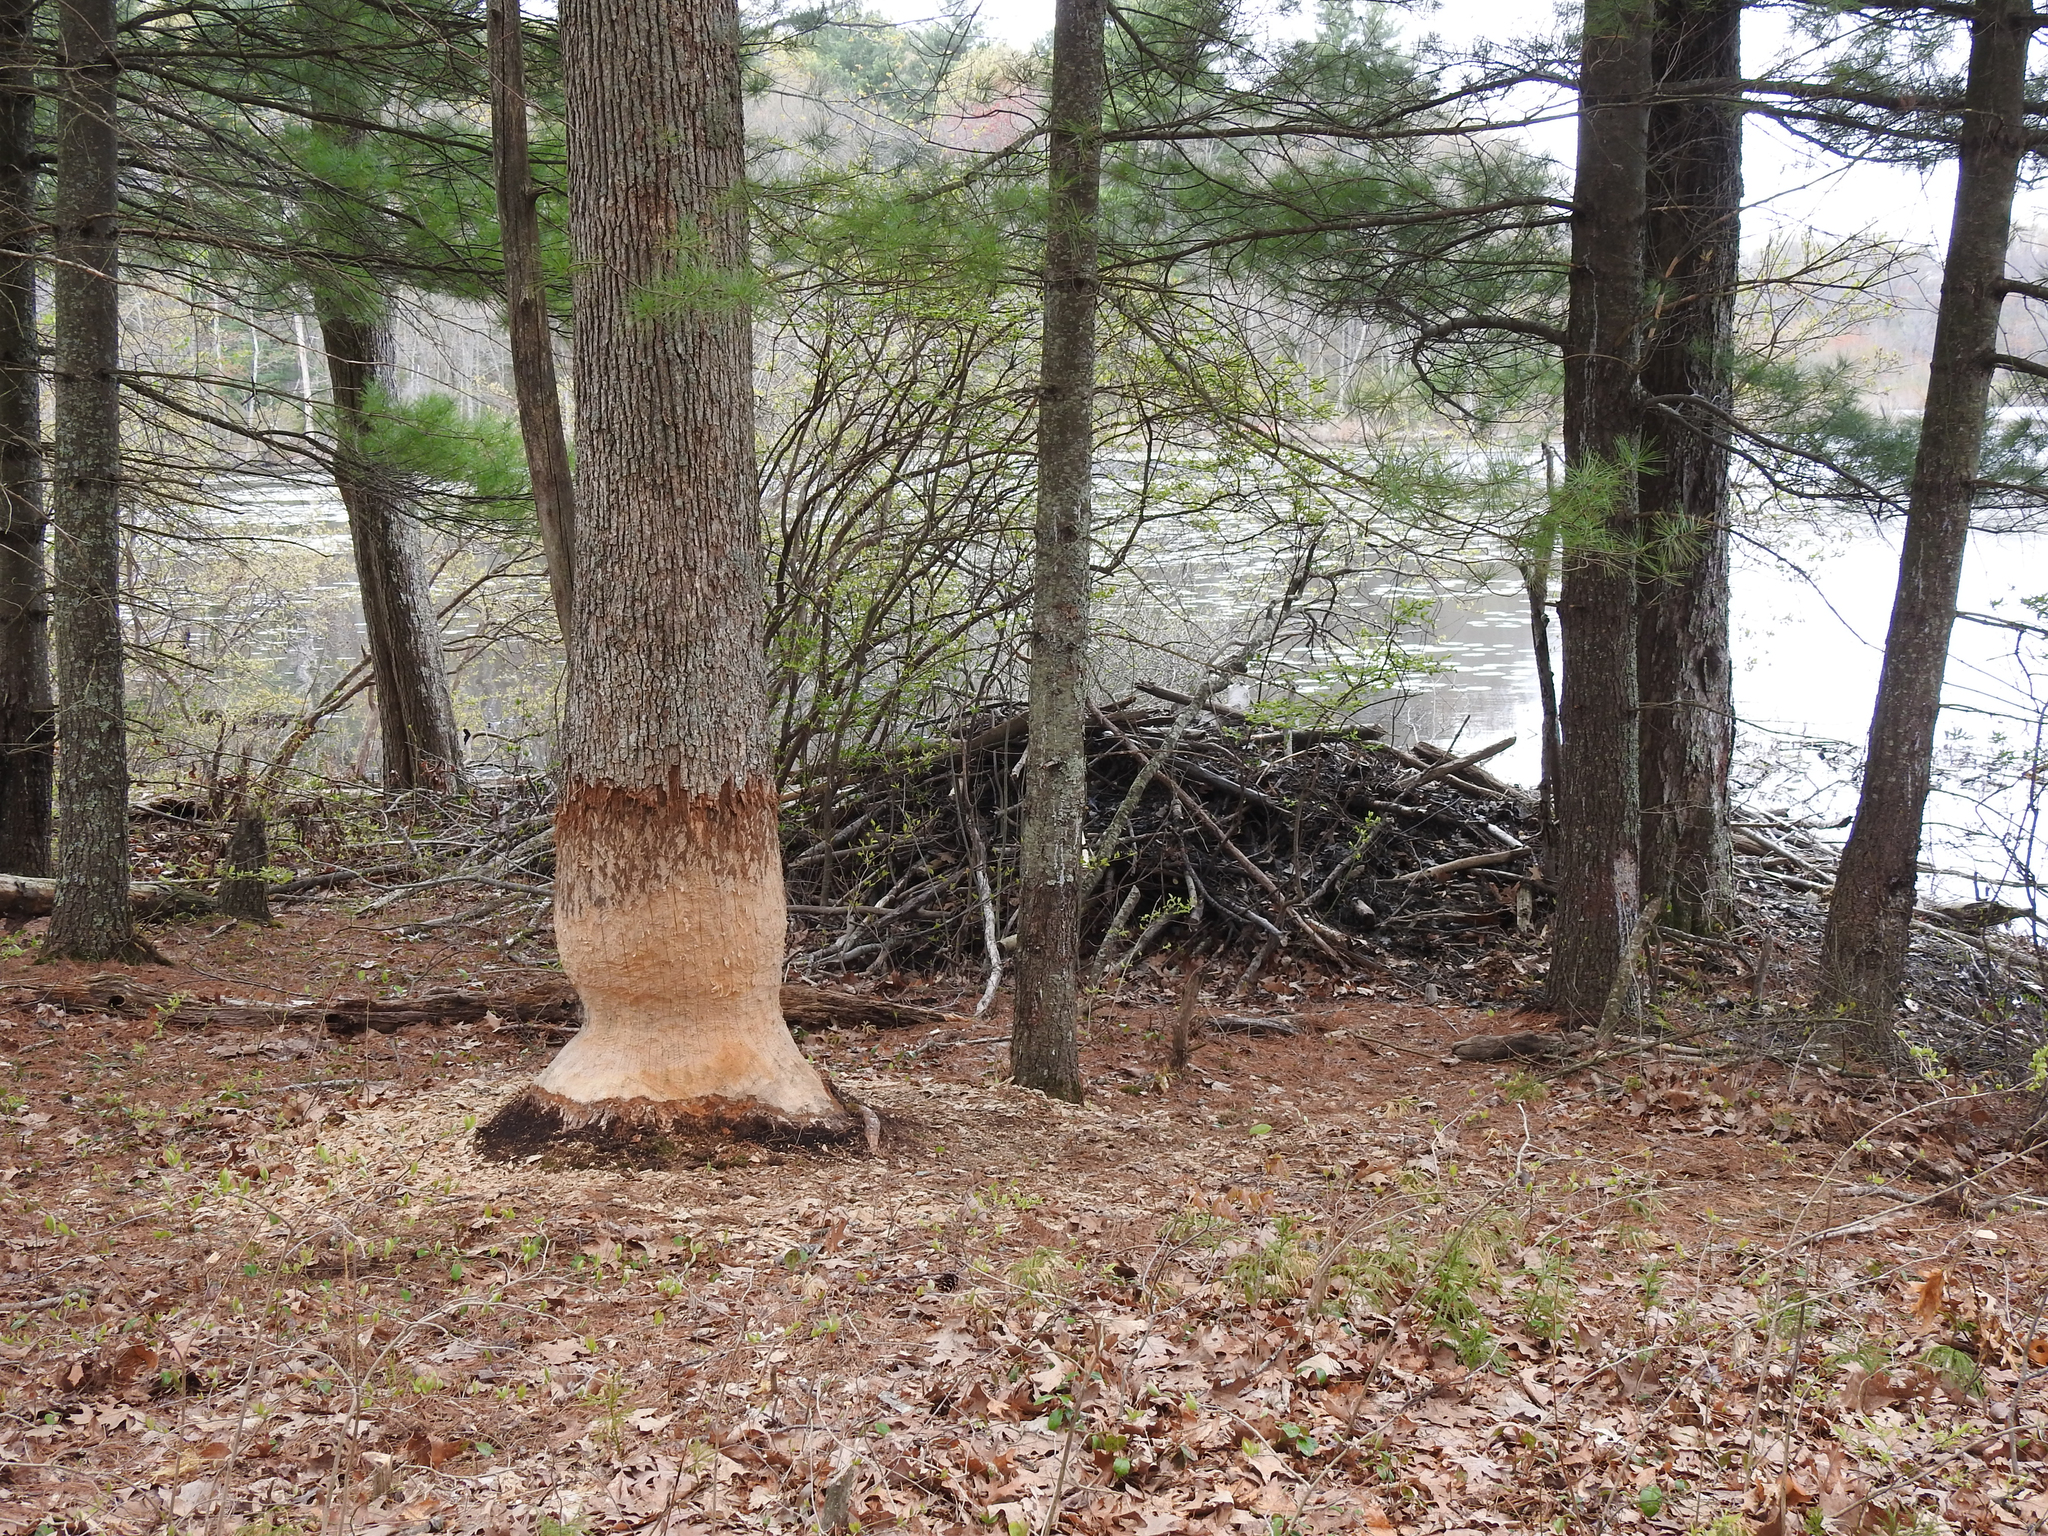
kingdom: Animalia
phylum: Chordata
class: Mammalia
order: Rodentia
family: Castoridae
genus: Castor
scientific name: Castor canadensis
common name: American beaver
